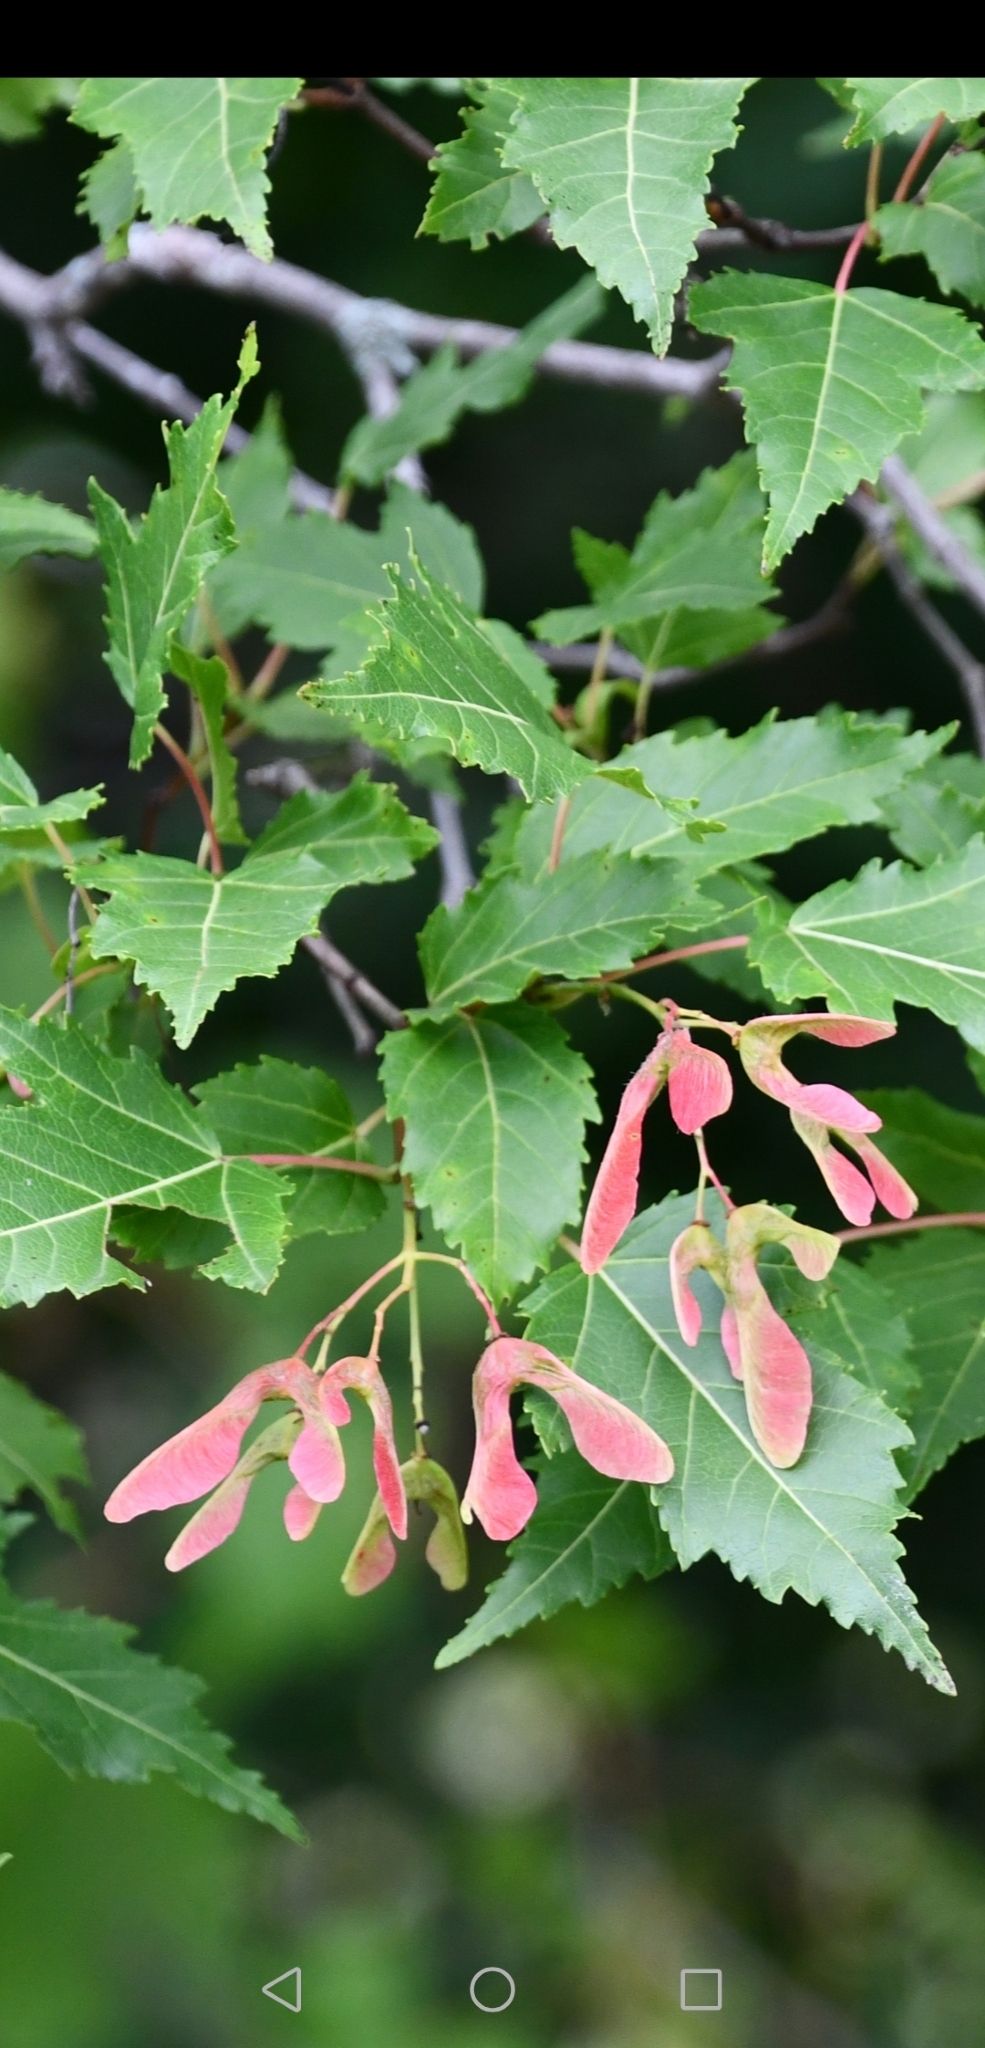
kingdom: Plantae
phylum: Tracheophyta
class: Magnoliopsida
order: Sapindales
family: Sapindaceae
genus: Acer
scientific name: Acer tataricum
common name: Tartar maple
